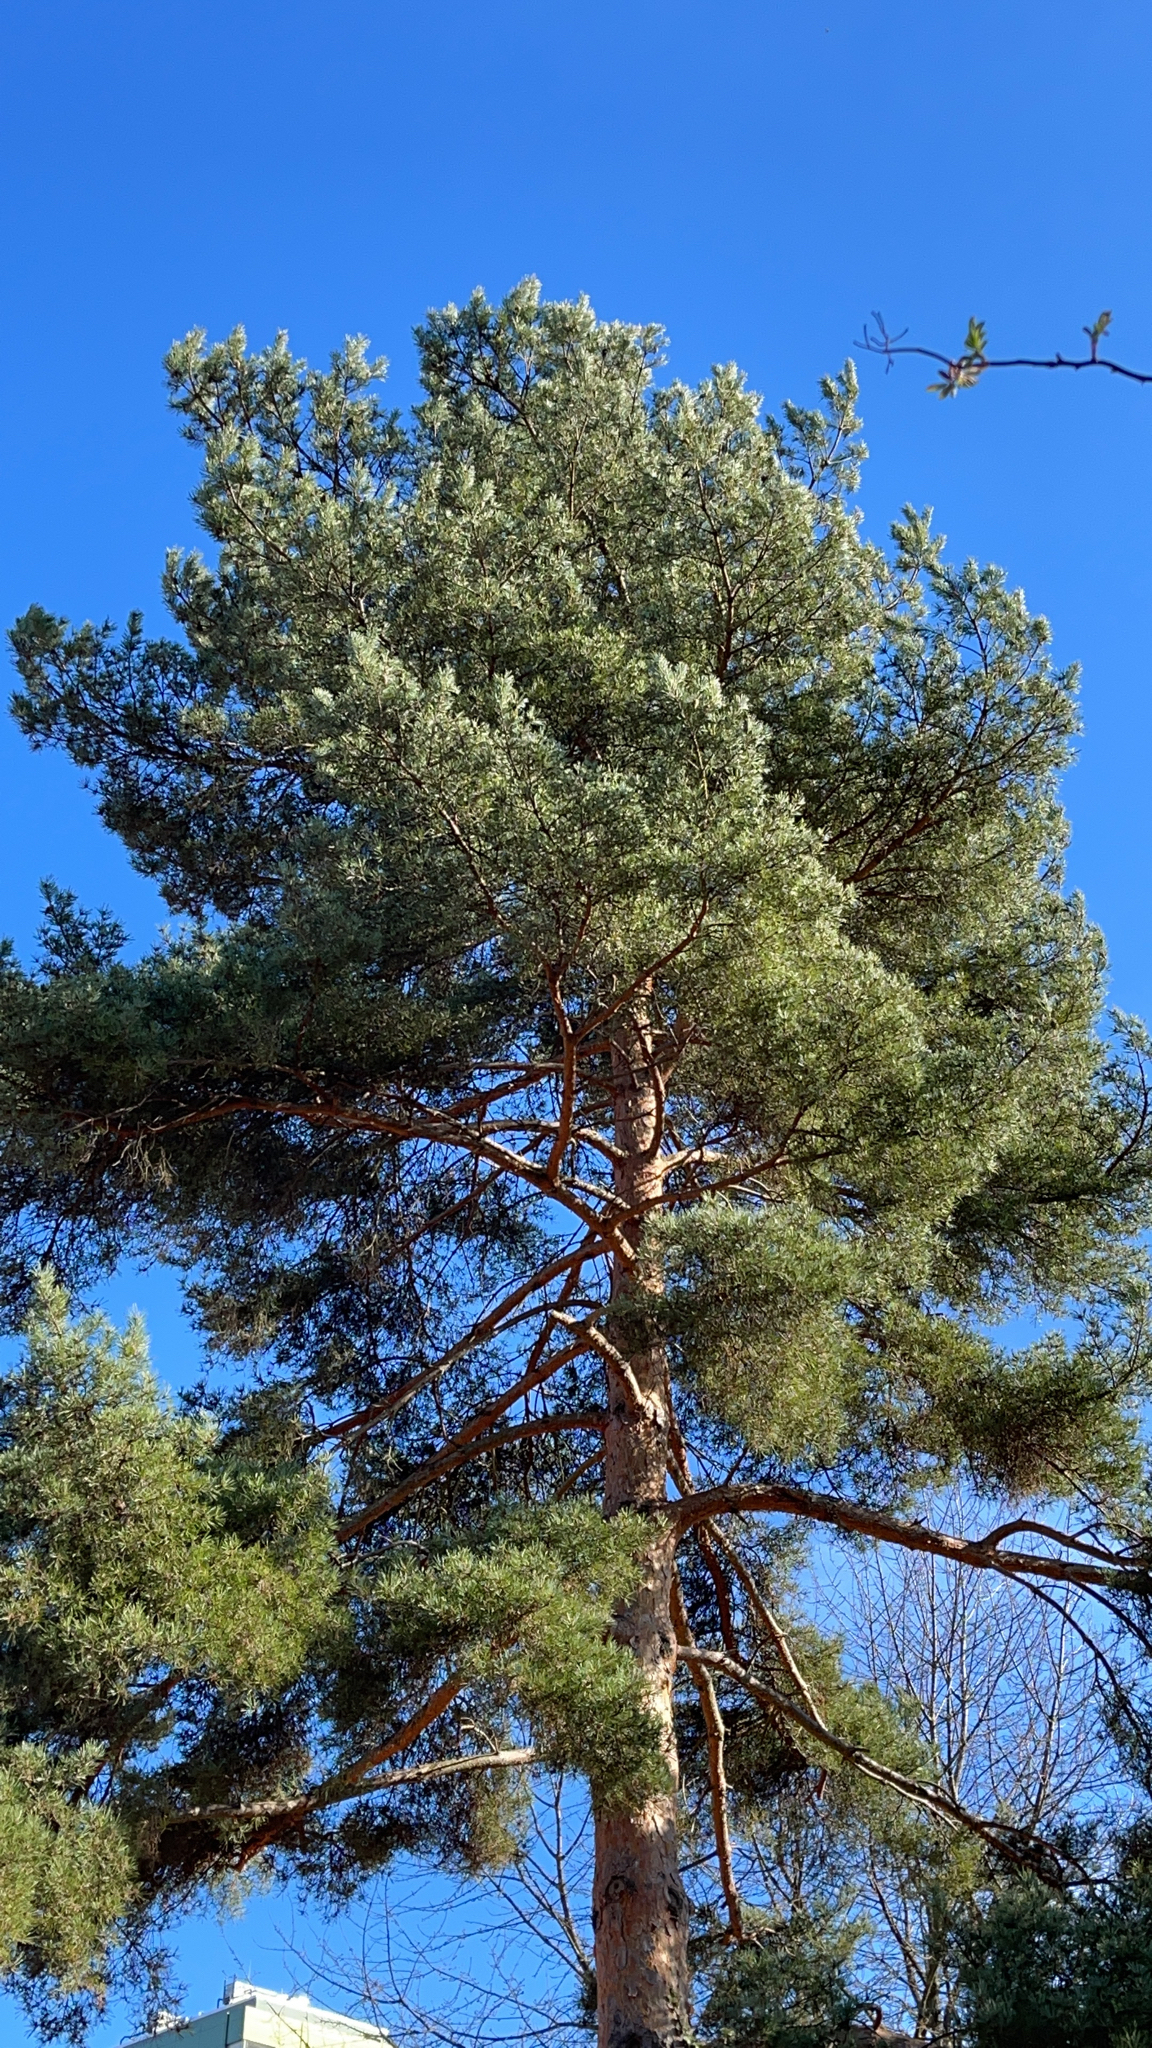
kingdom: Plantae
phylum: Tracheophyta
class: Pinopsida
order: Pinales
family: Pinaceae
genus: Pinus
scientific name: Pinus sylvestris
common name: Scots pine
